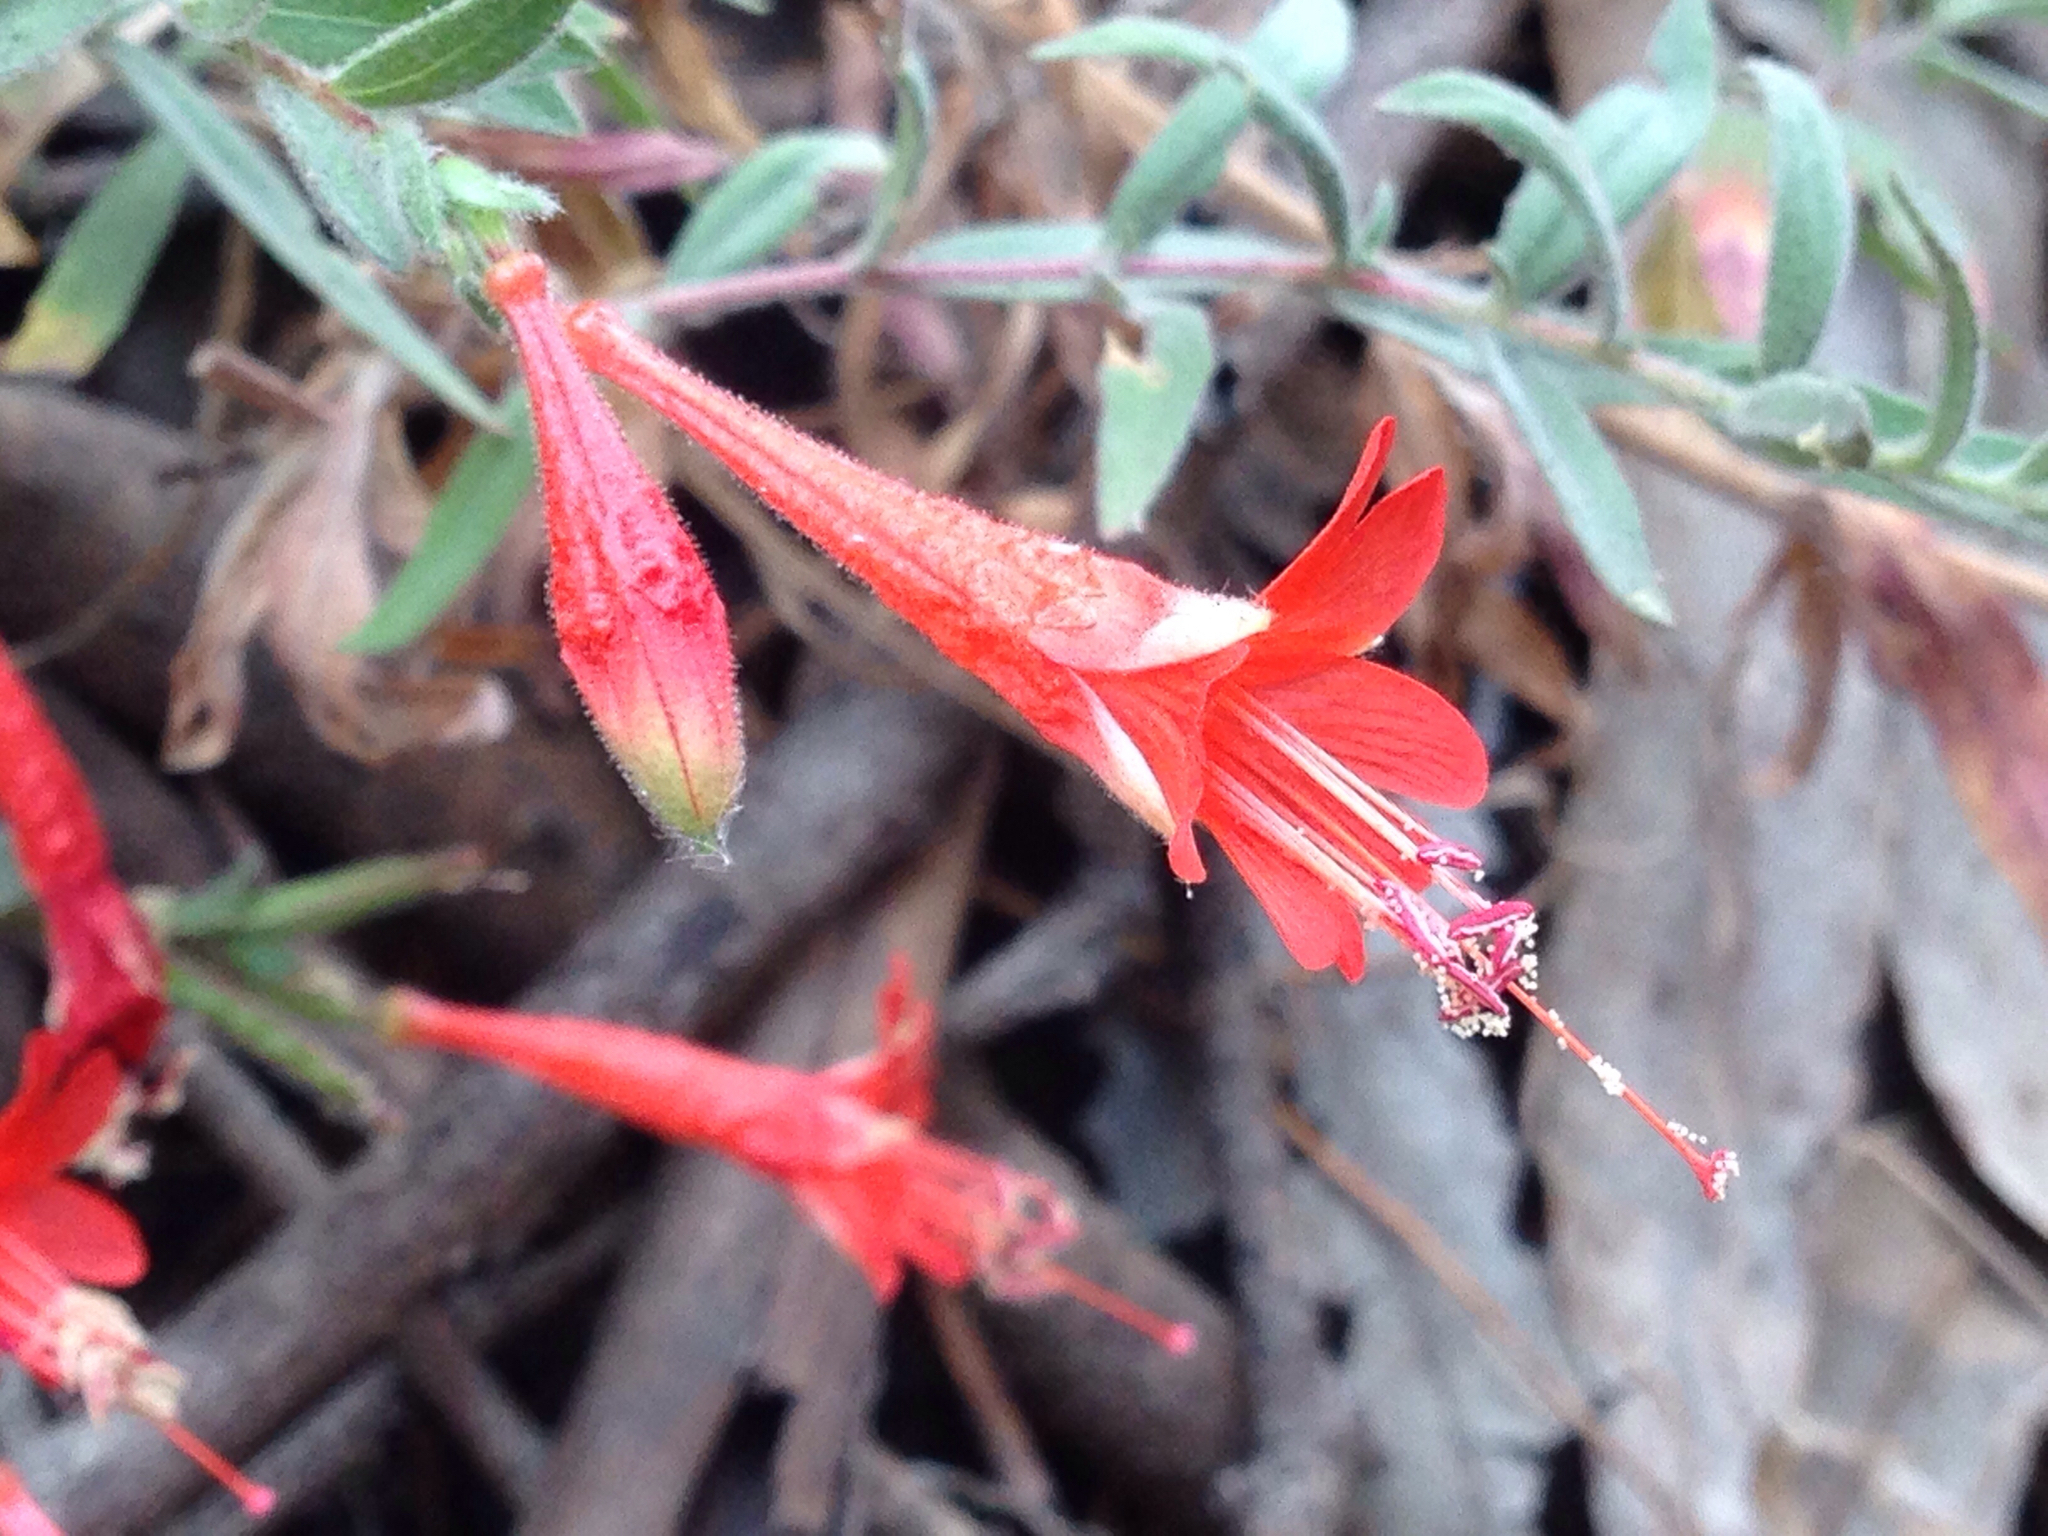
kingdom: Plantae
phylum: Tracheophyta
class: Magnoliopsida
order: Myrtales
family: Onagraceae
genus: Epilobium
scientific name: Epilobium canum
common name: California-fuchsia
